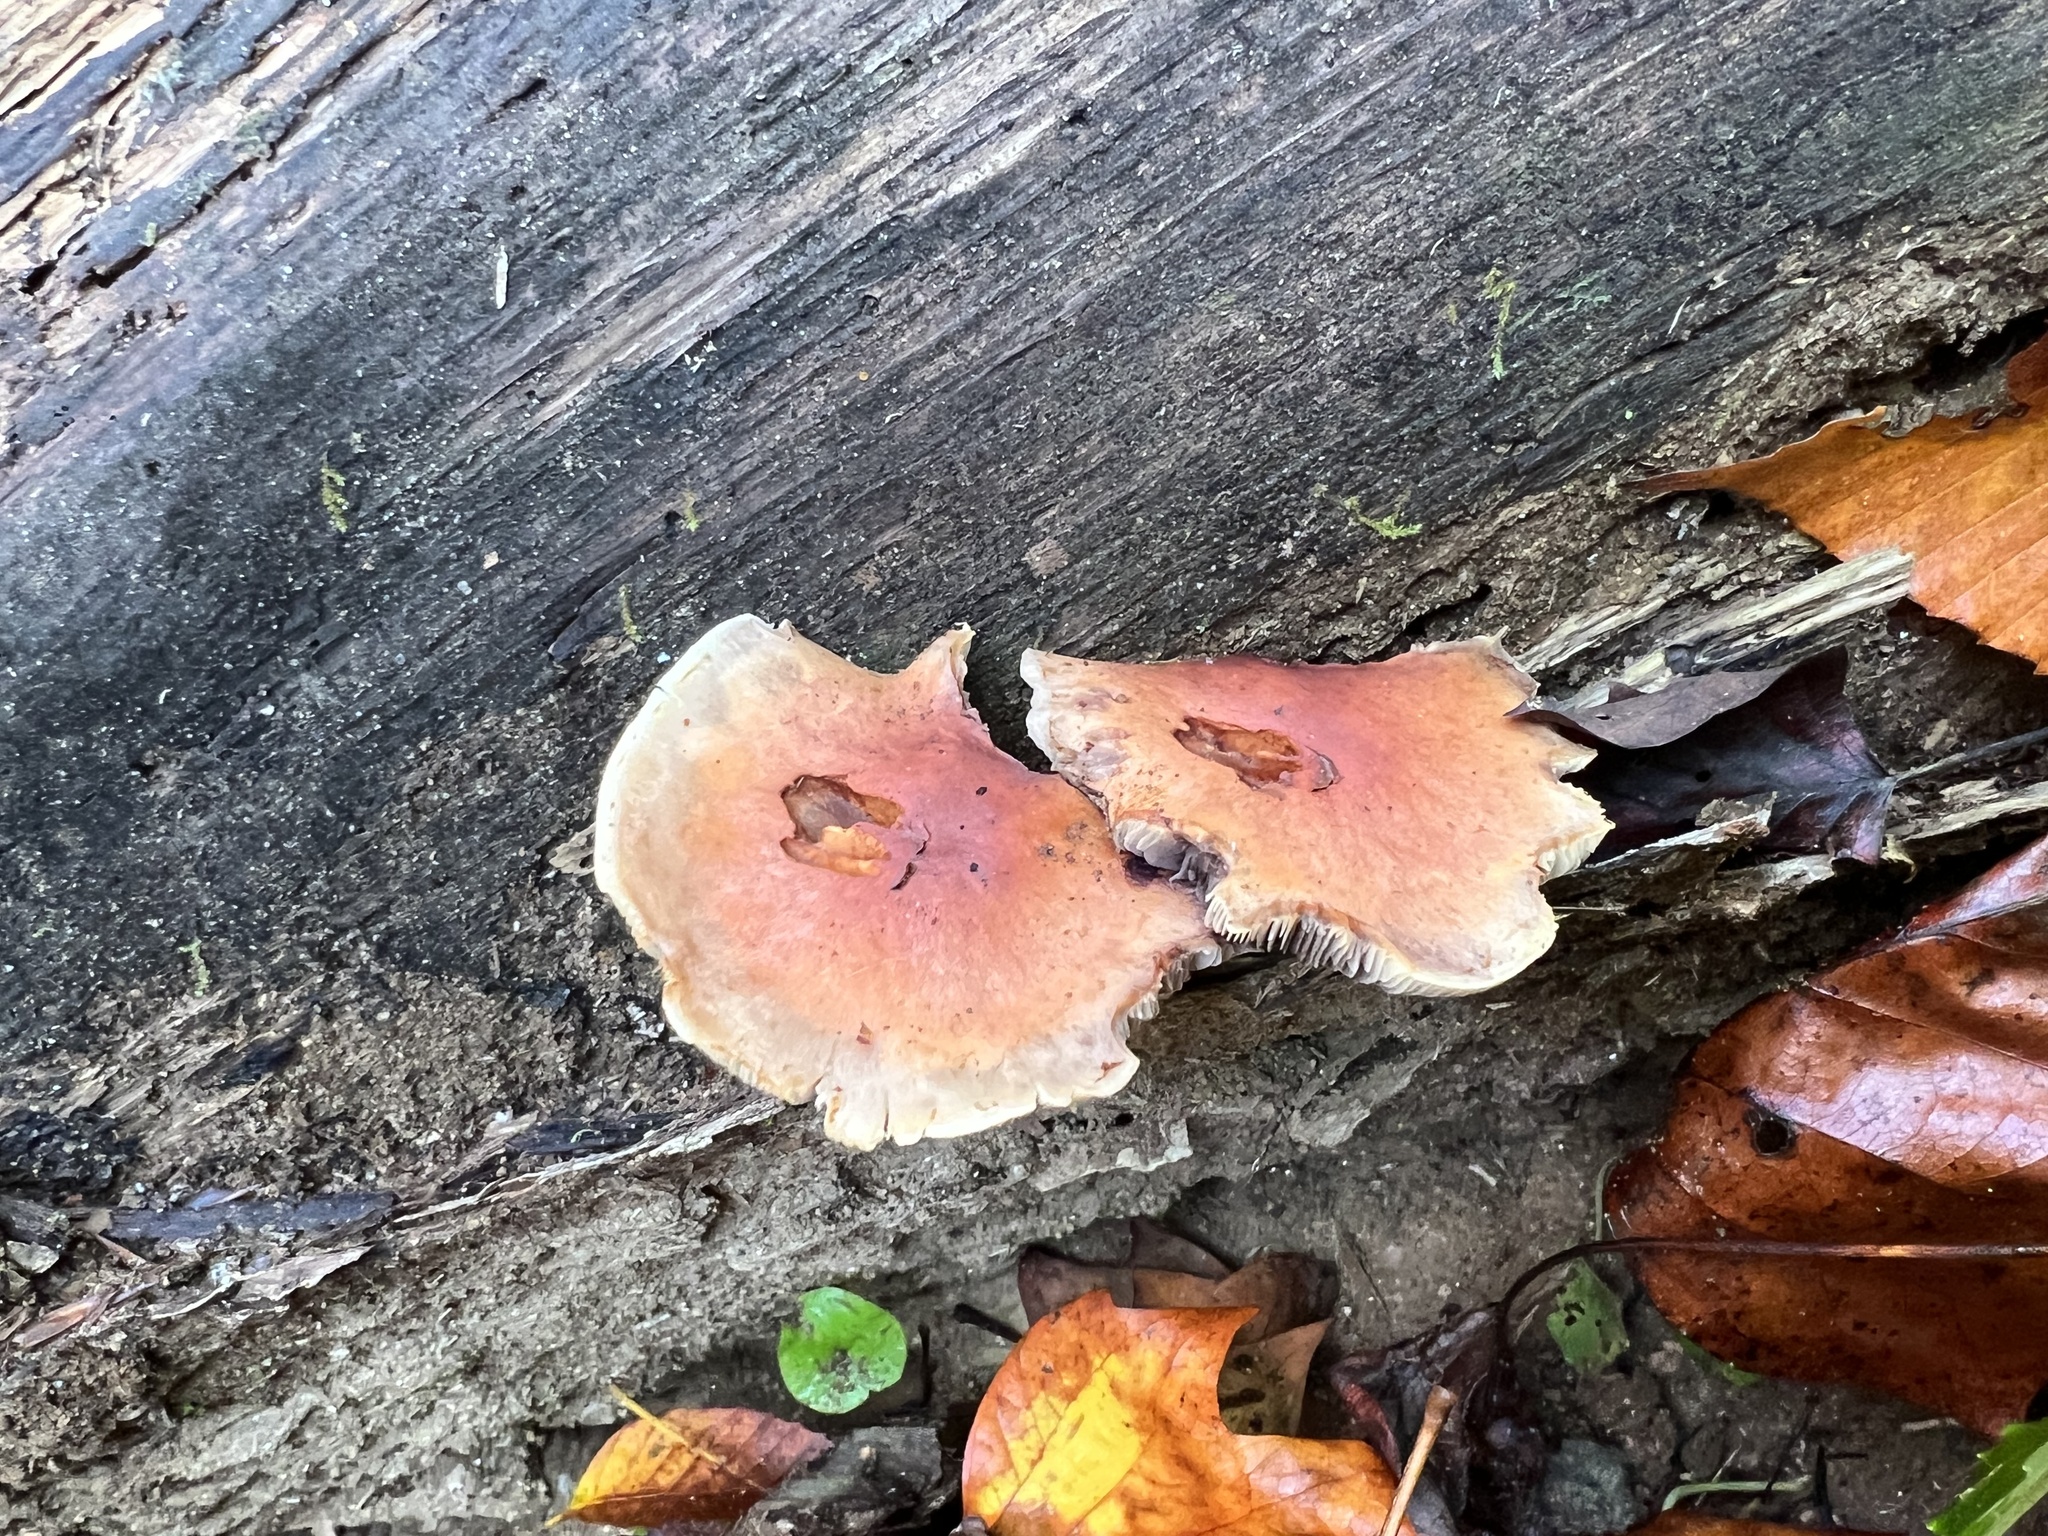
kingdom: Fungi
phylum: Basidiomycota
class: Agaricomycetes
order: Agaricales
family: Strophariaceae
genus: Hypholoma
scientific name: Hypholoma lateritium
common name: Brick caps
